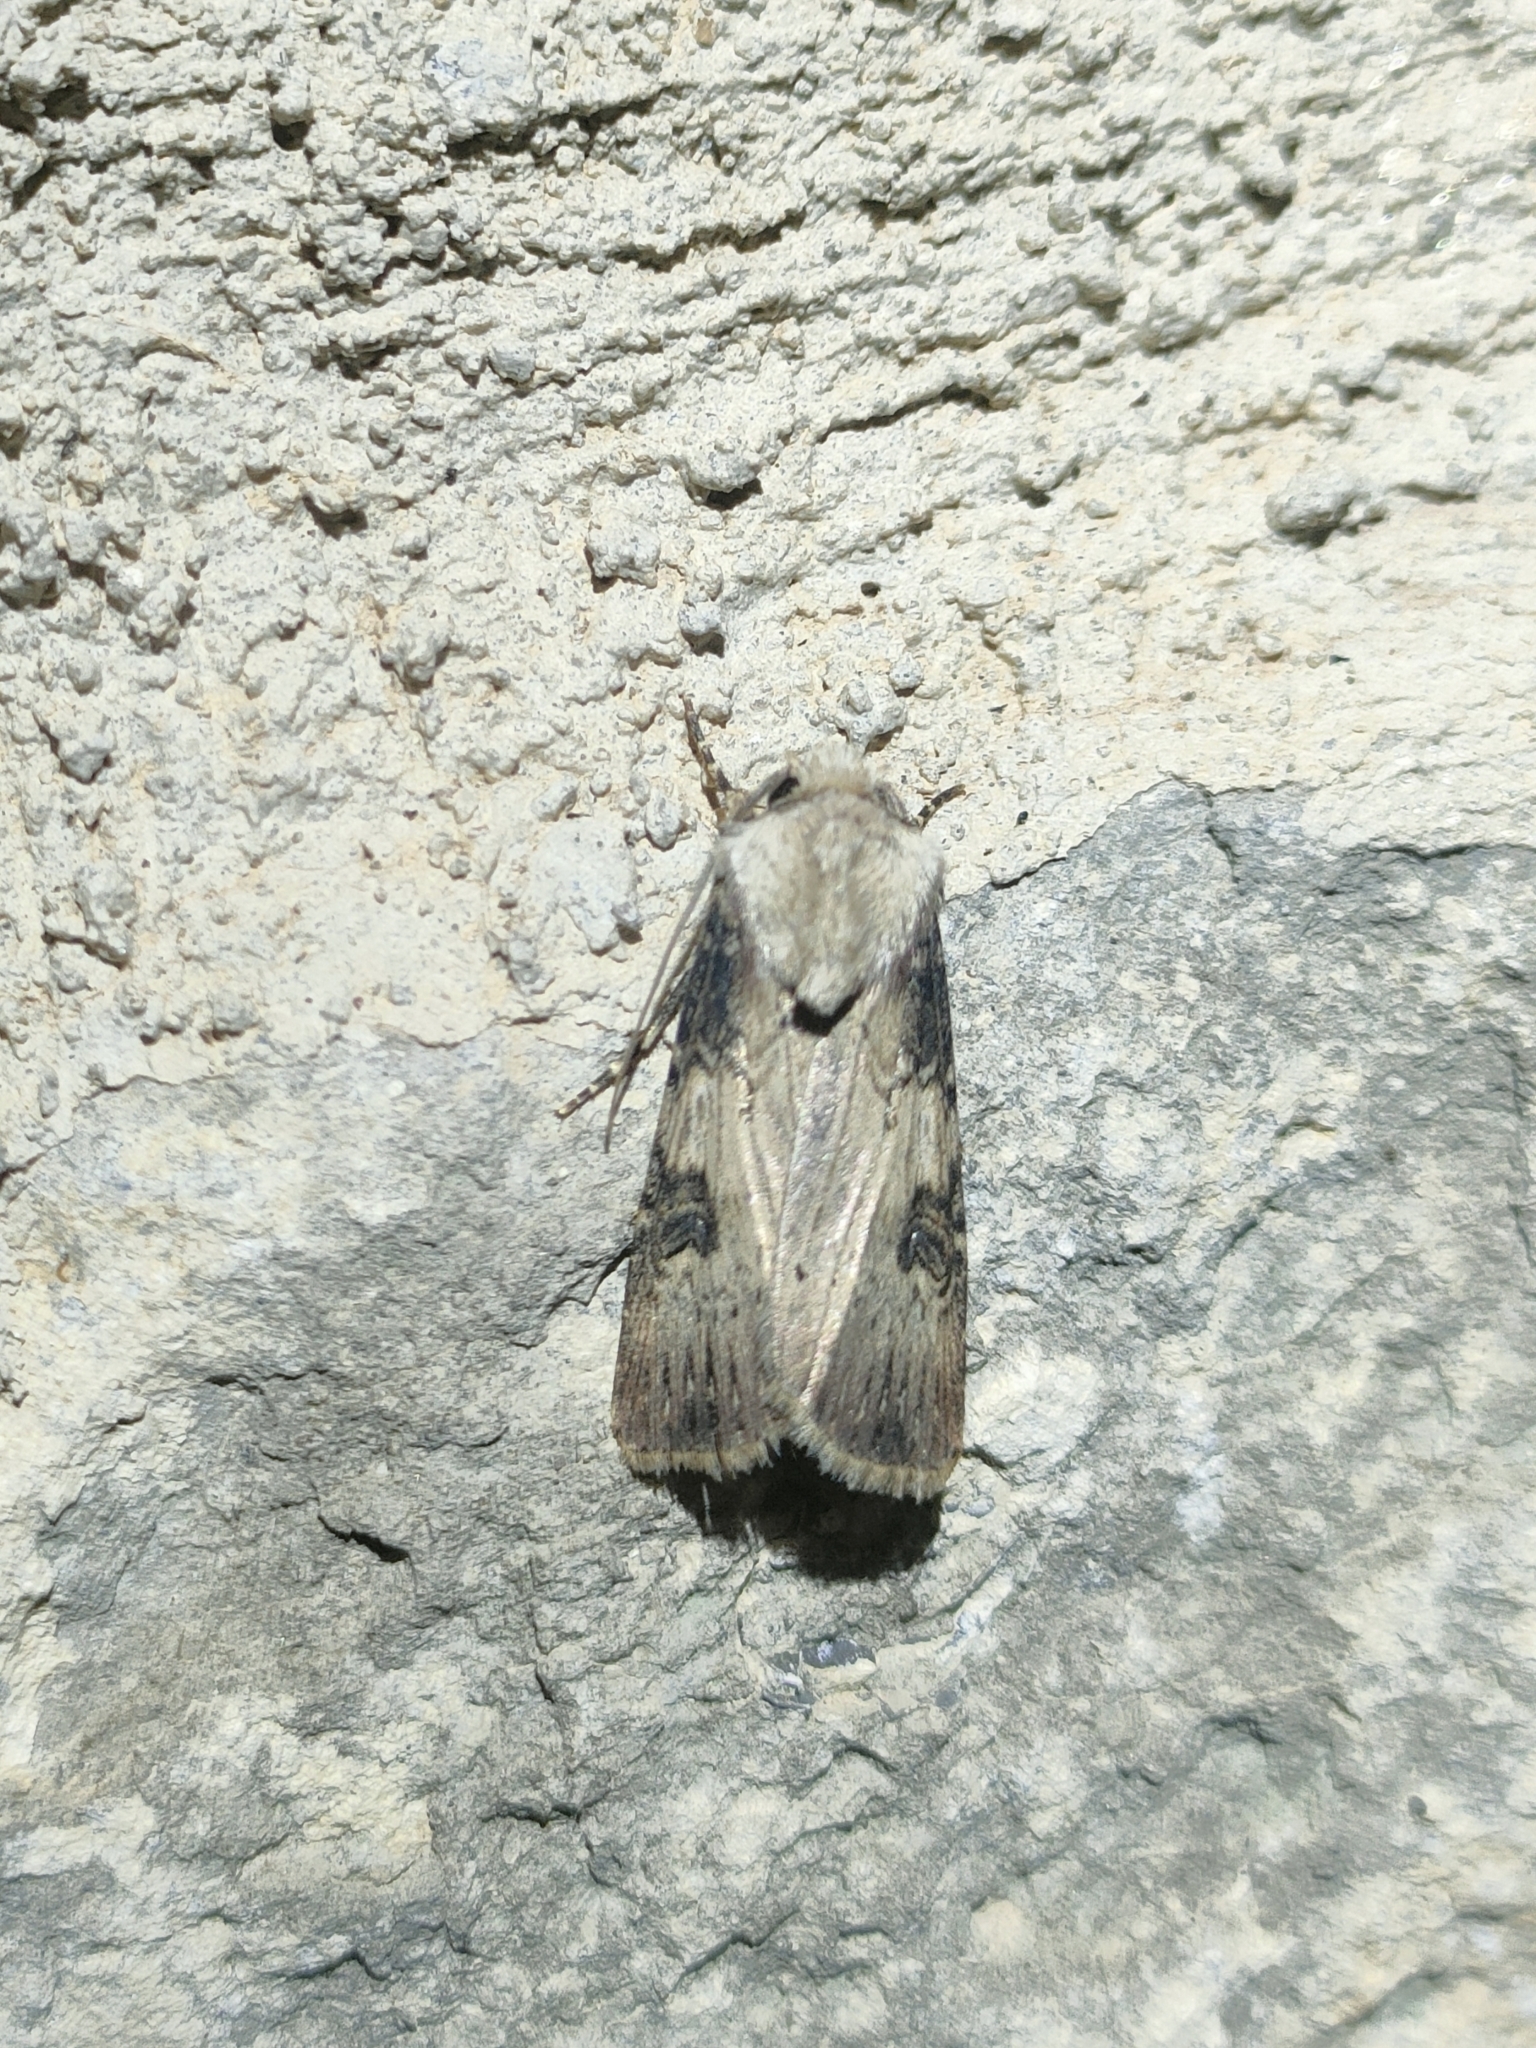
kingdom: Animalia
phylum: Arthropoda
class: Insecta
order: Lepidoptera
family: Noctuidae
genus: Agrotis
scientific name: Agrotis puta
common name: Shuttle-shaped dart
